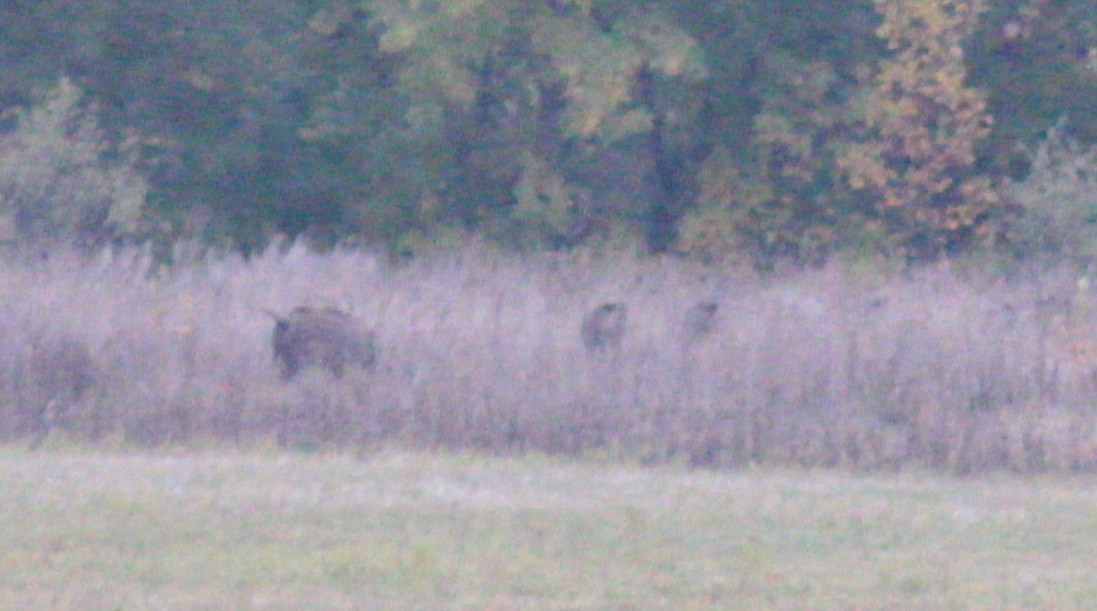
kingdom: Animalia
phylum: Chordata
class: Mammalia
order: Artiodactyla
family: Suidae
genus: Sus
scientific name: Sus scrofa
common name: Wild boar
